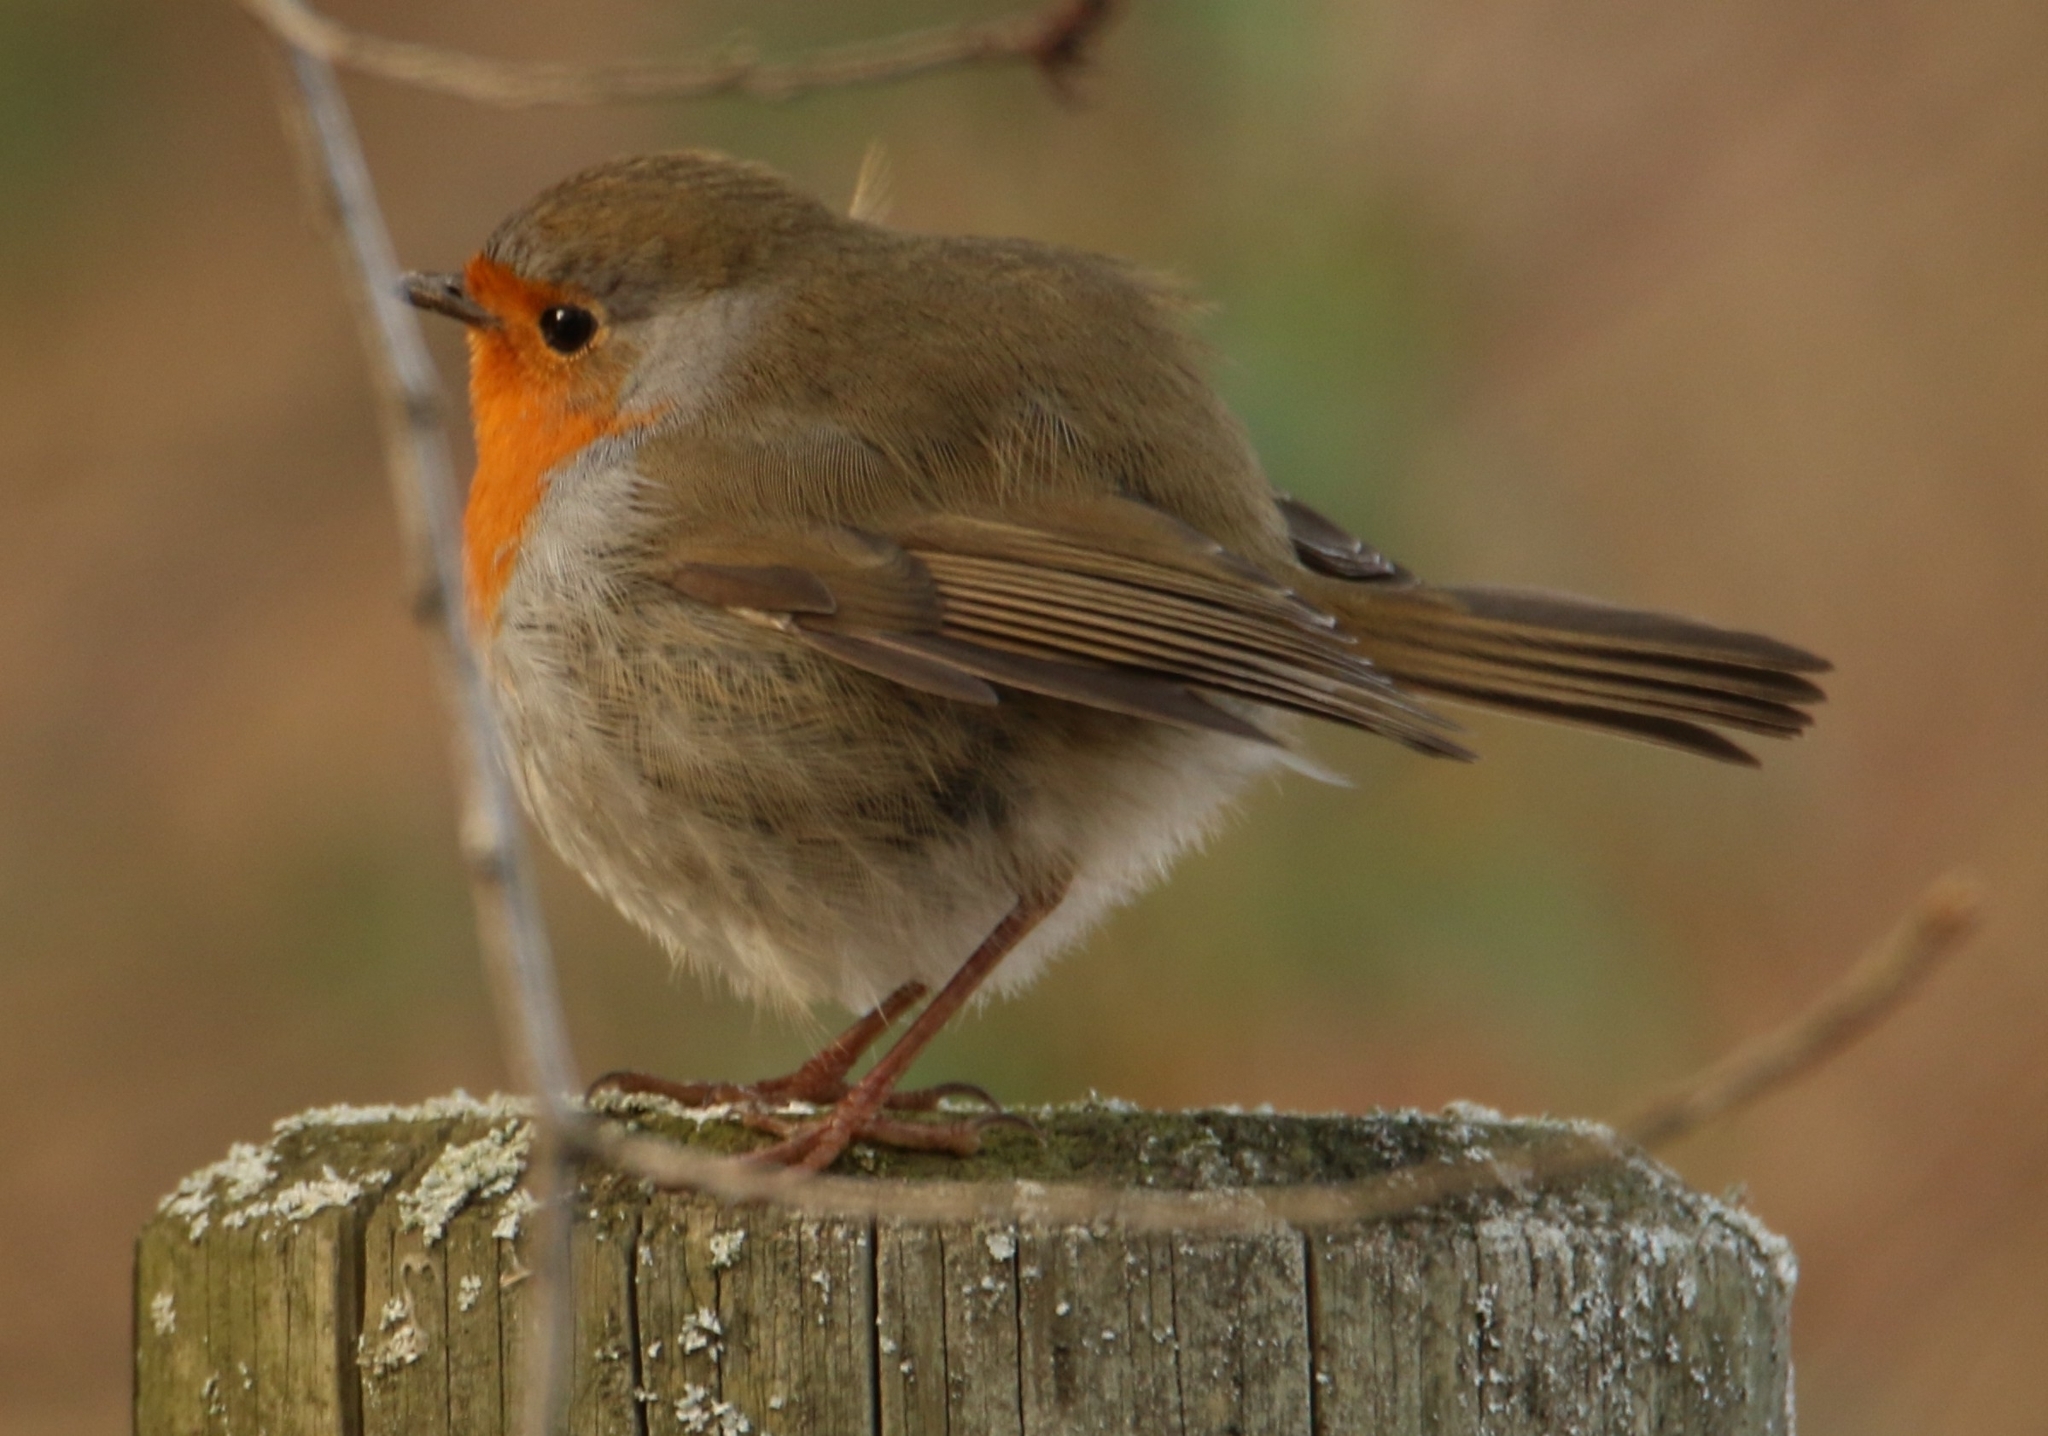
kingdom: Animalia
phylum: Chordata
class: Aves
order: Passeriformes
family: Muscicapidae
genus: Erithacus
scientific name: Erithacus rubecula
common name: European robin
